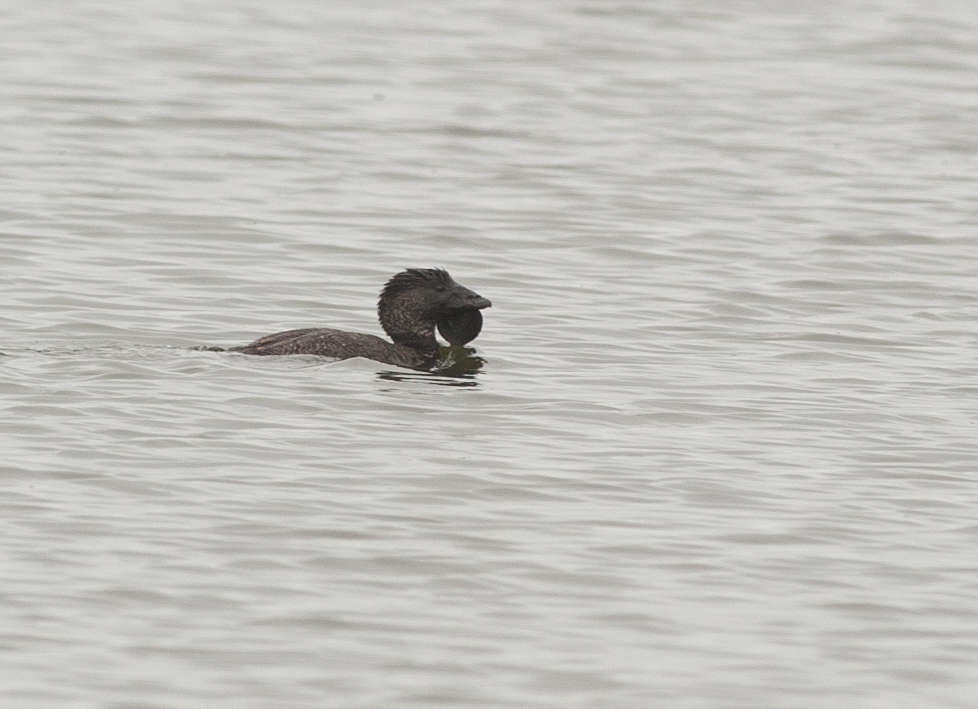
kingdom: Animalia
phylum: Chordata
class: Aves
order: Anseriformes
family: Anatidae
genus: Biziura
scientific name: Biziura lobata
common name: Musk duck
